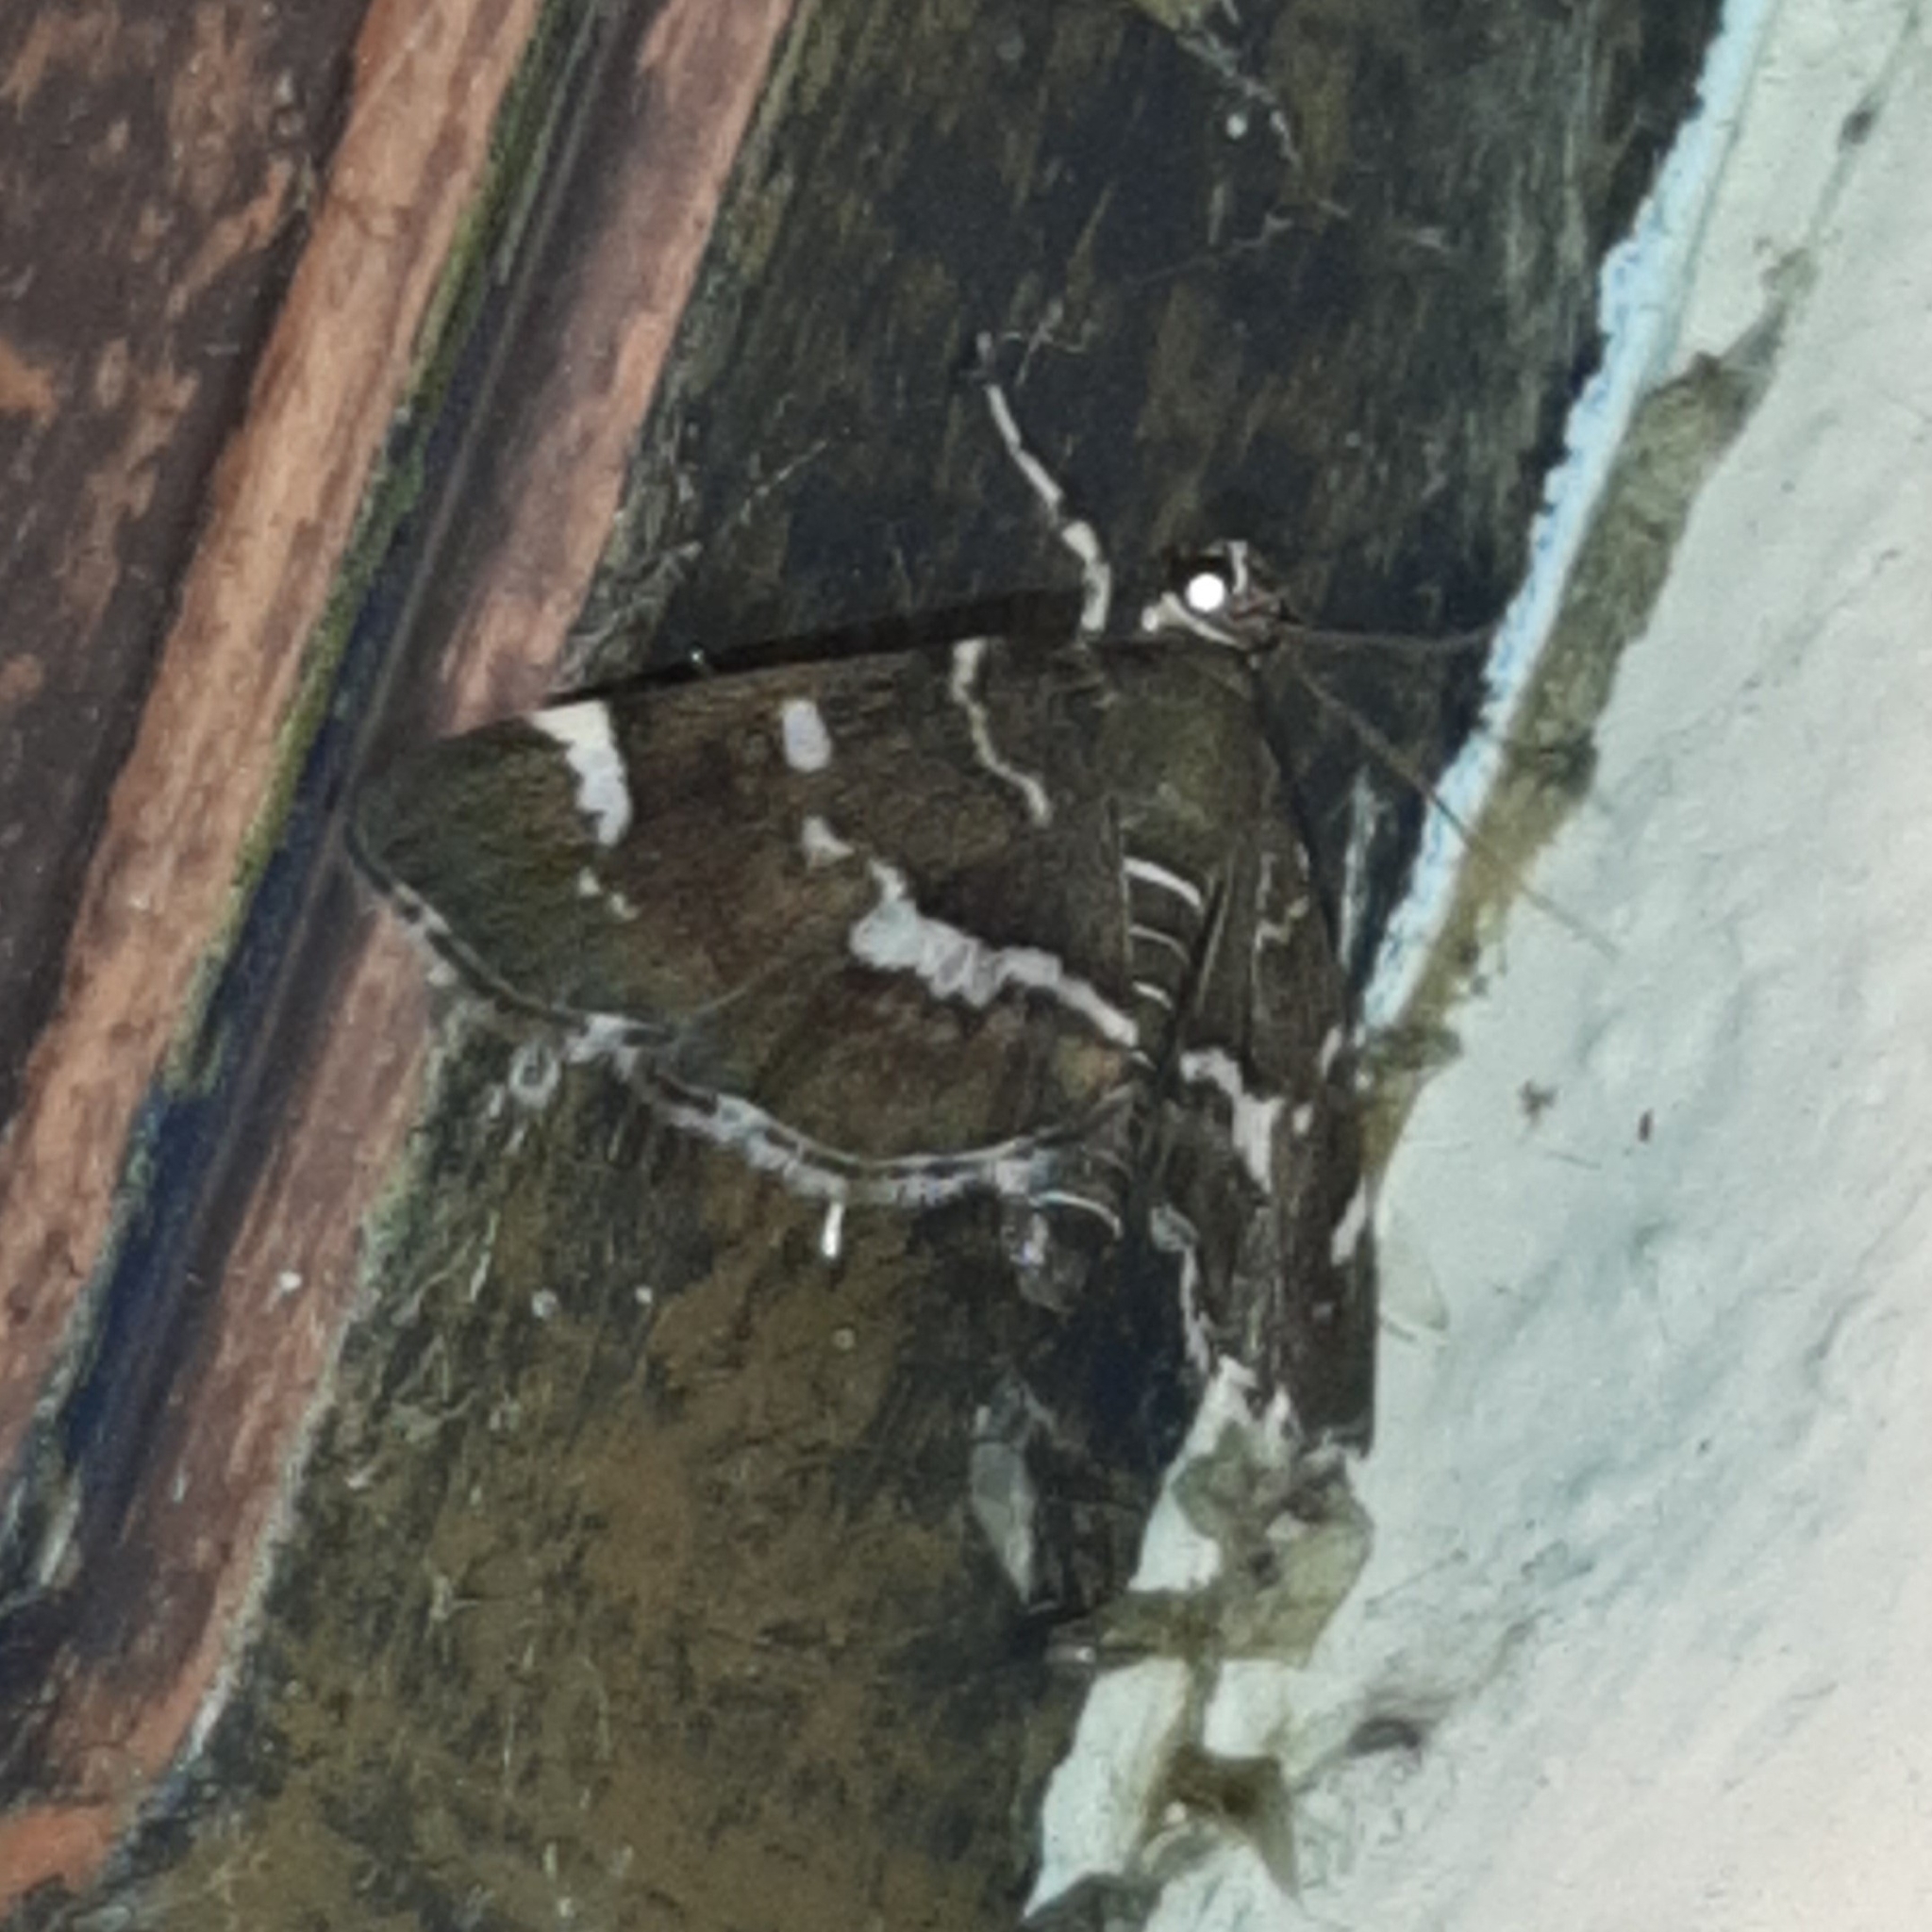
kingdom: Animalia
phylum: Arthropoda
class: Insecta
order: Lepidoptera
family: Crambidae
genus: Hymenia
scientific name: Hymenia perspectalis
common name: Spotted beet webworm
